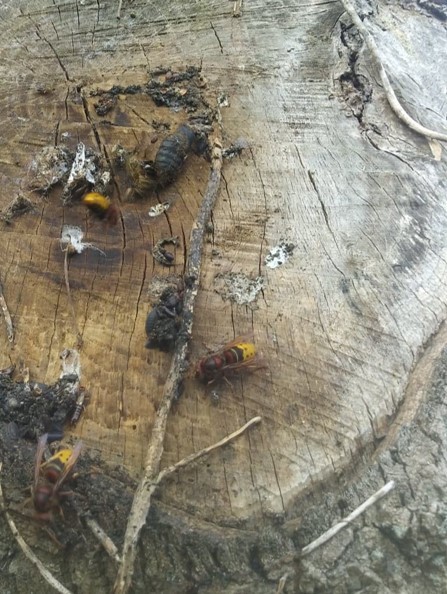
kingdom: Animalia
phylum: Arthropoda
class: Insecta
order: Hymenoptera
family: Vespidae
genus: Vespa
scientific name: Vespa crabro
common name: Hornet
